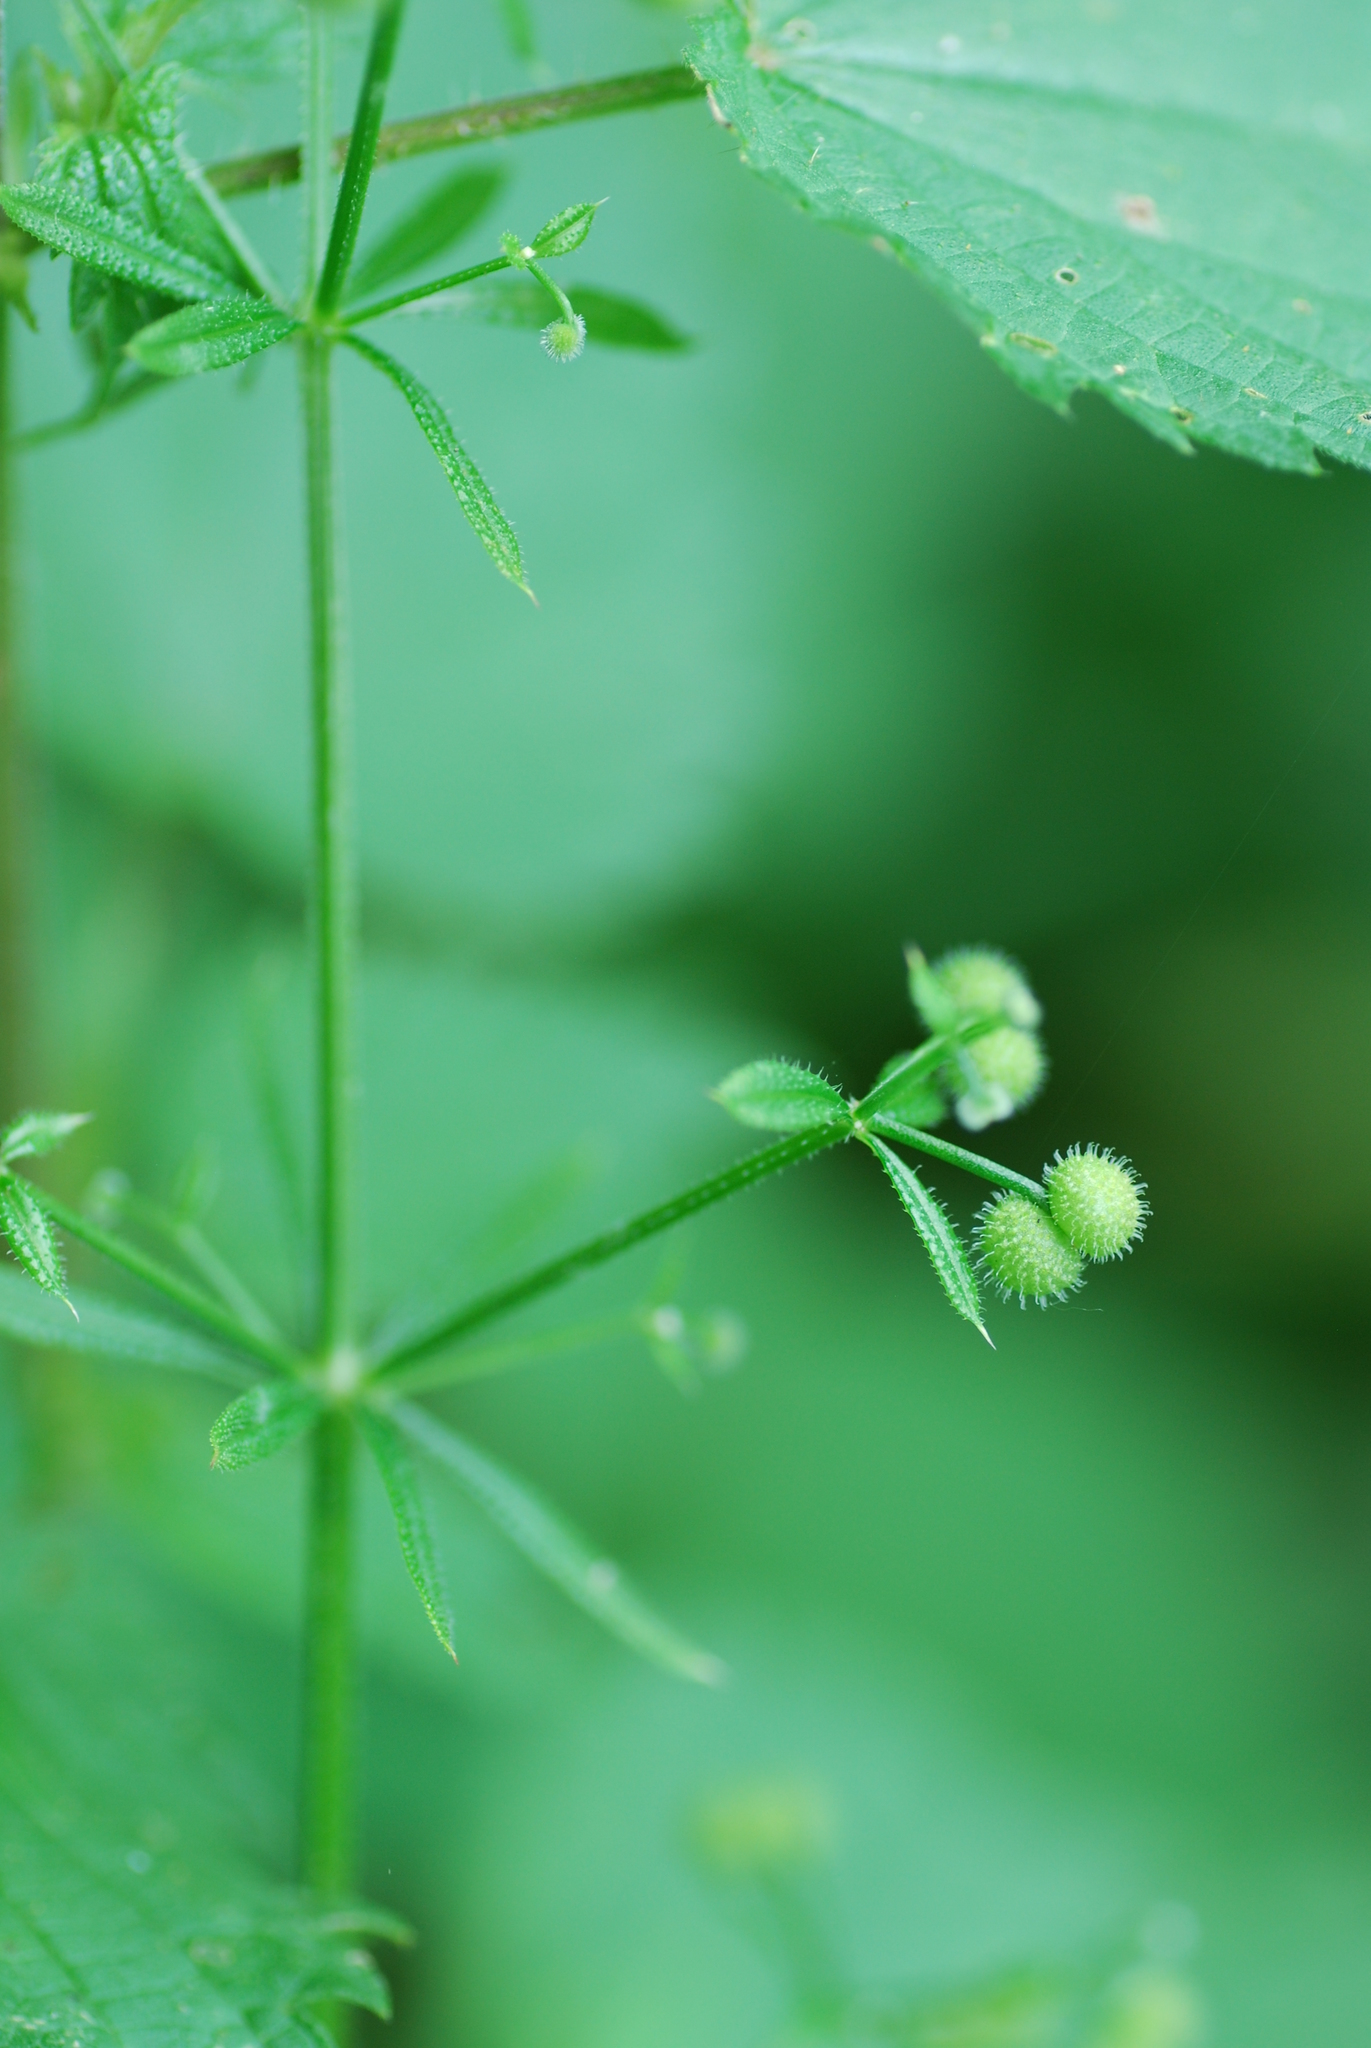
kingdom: Plantae
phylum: Tracheophyta
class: Magnoliopsida
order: Gentianales
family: Rubiaceae
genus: Galium
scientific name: Galium aparine
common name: Cleavers
